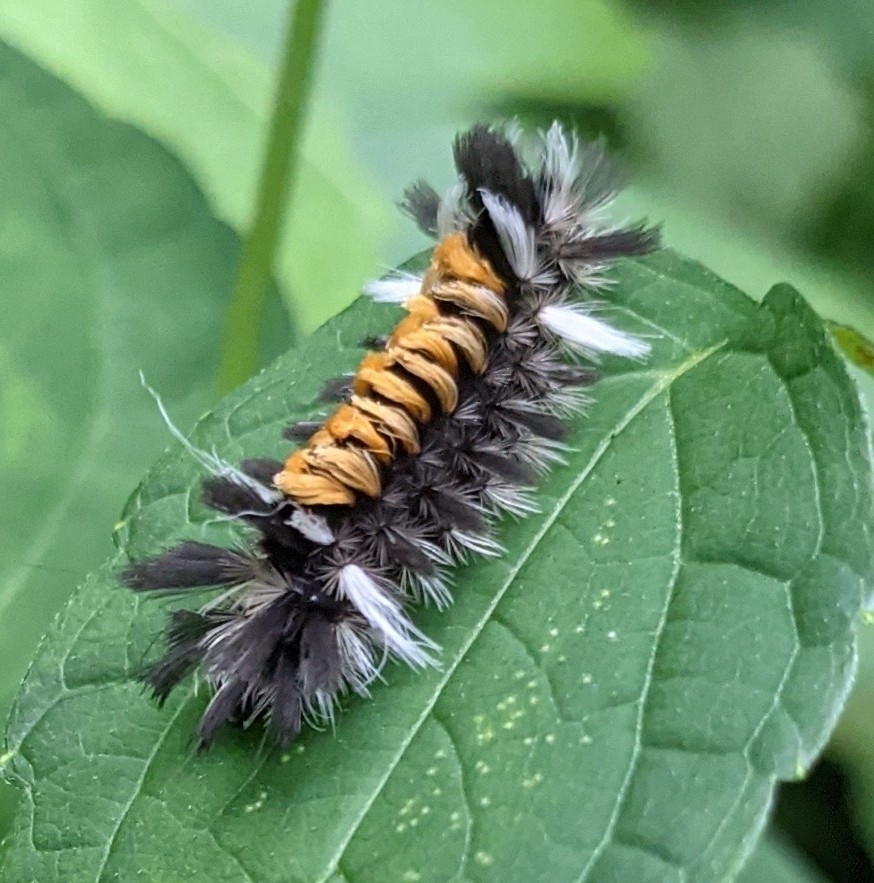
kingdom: Animalia
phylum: Arthropoda
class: Insecta
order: Lepidoptera
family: Erebidae
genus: Euchaetes
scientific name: Euchaetes egle
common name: Milkweed tussock moth
